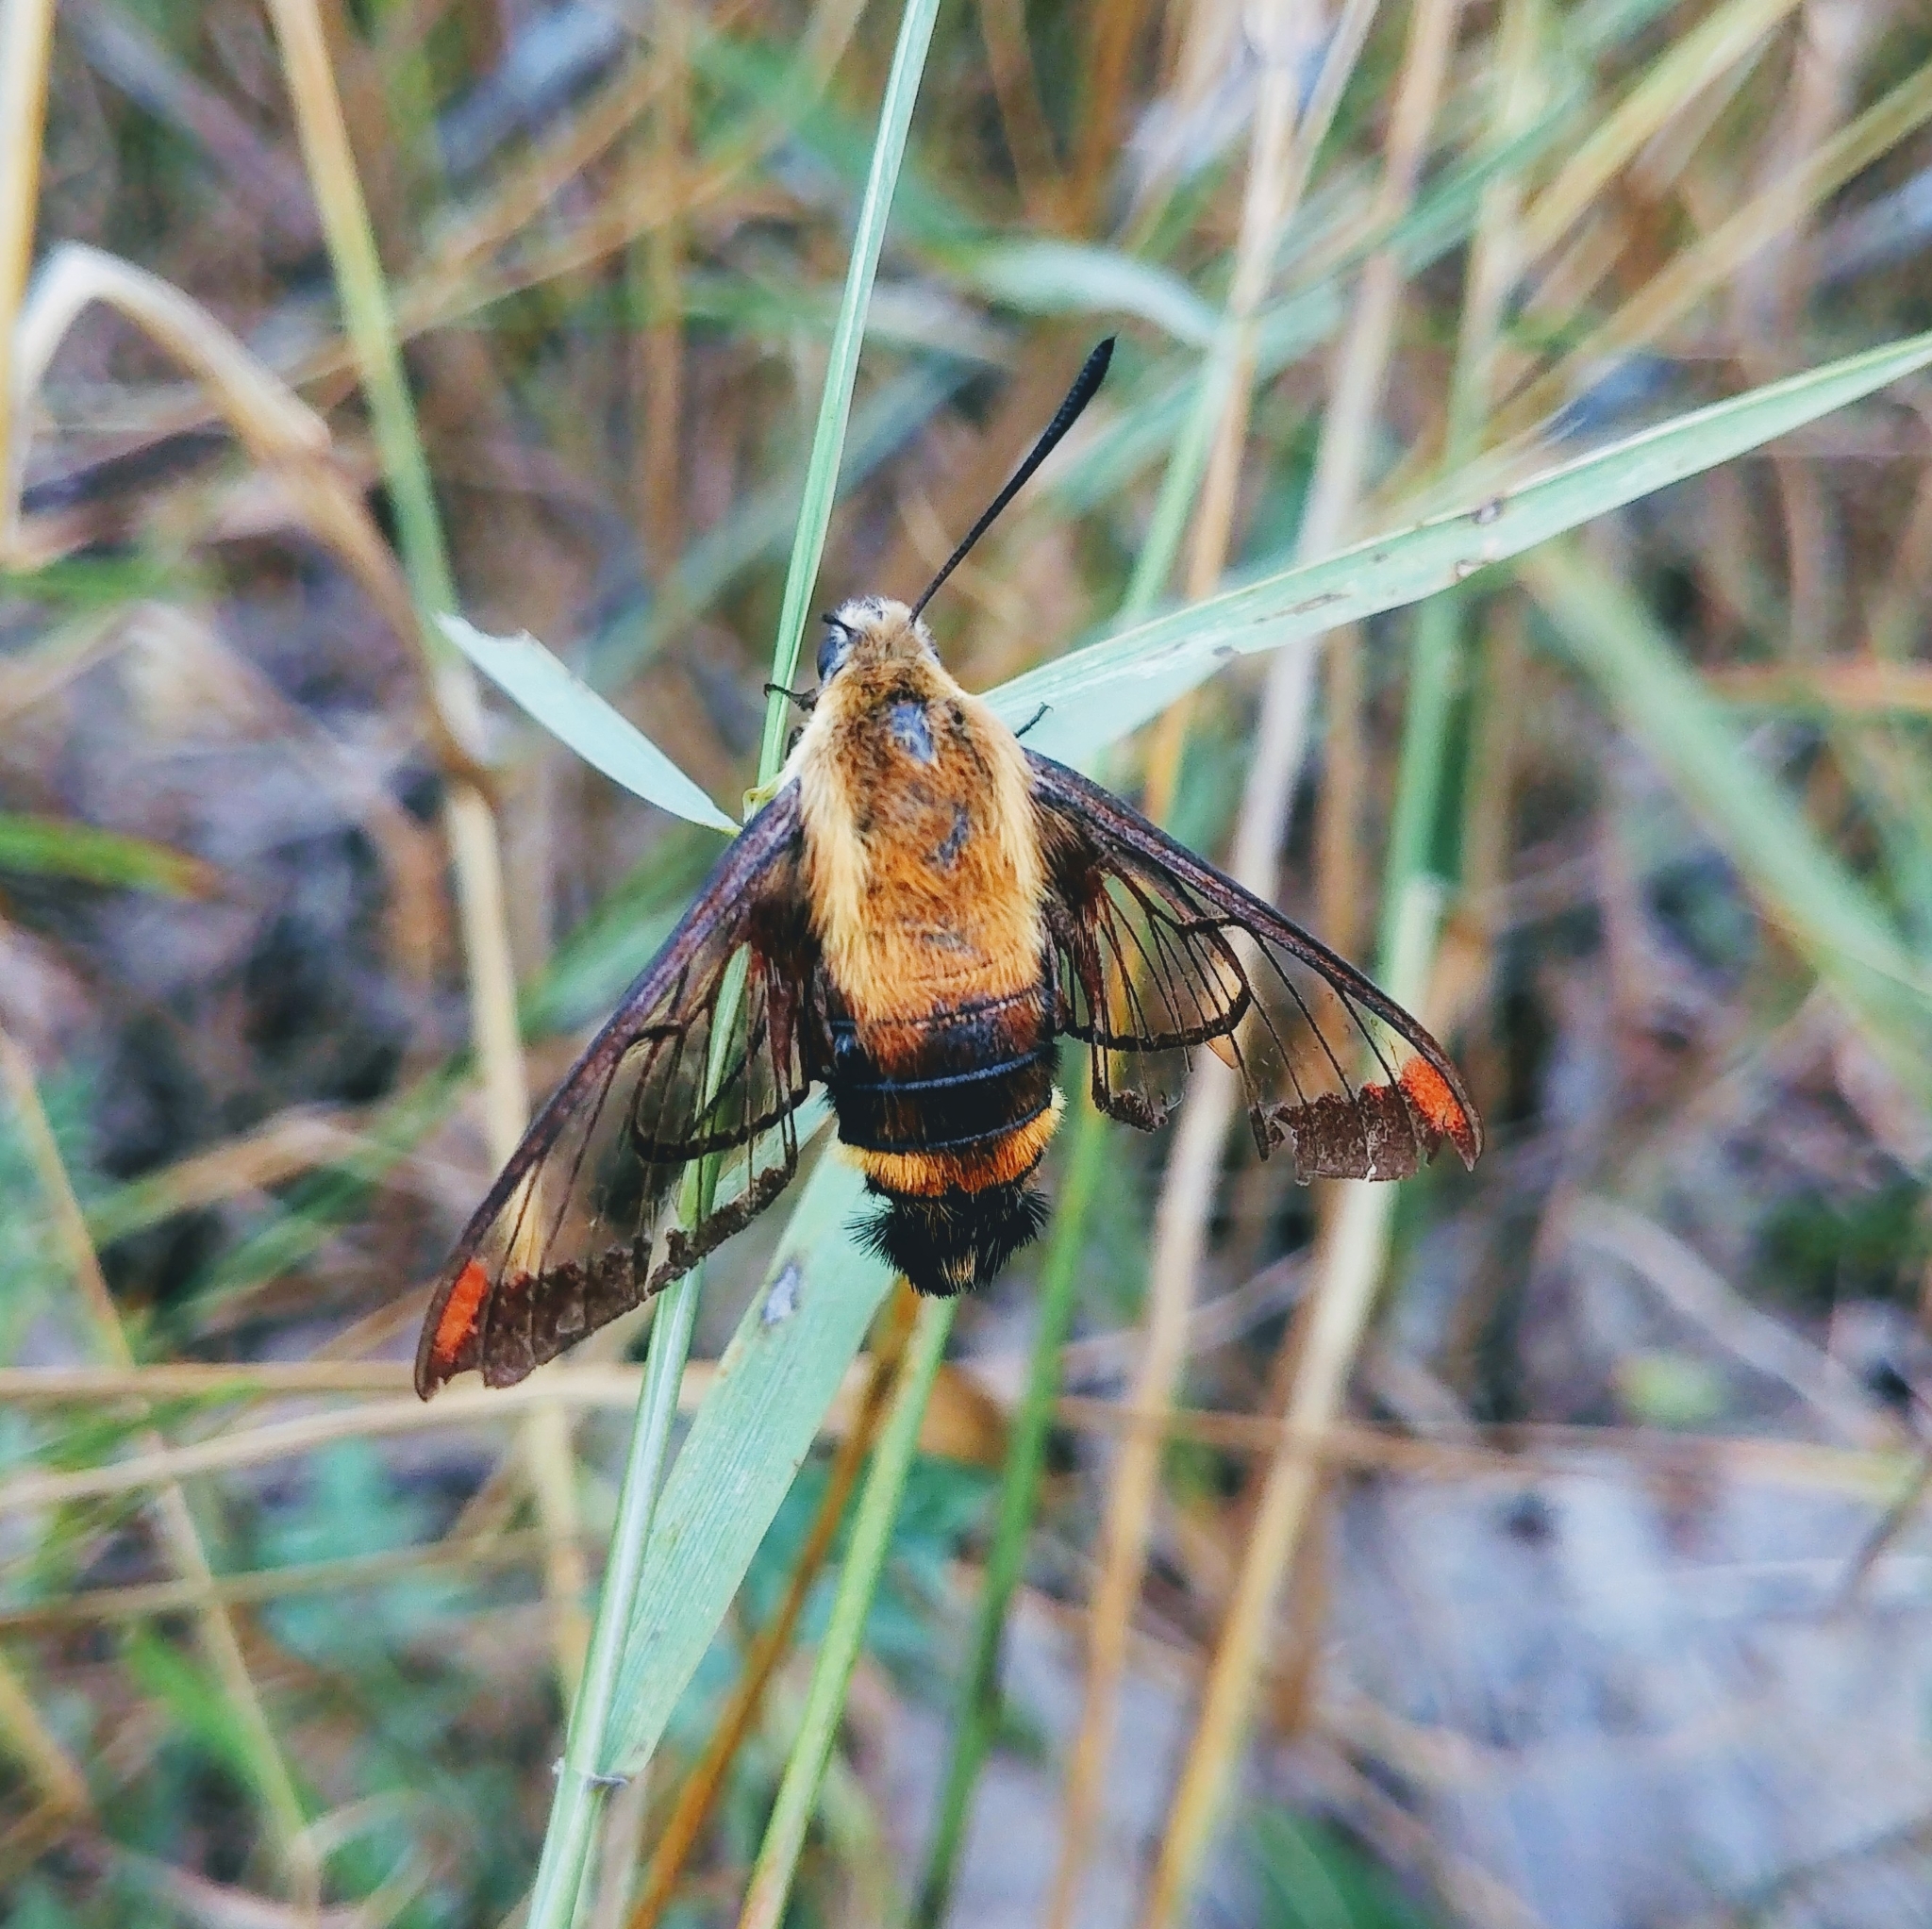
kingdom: Animalia
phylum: Arthropoda
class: Insecta
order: Lepidoptera
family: Sphingidae
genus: Hemaris
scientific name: Hemaris diffinis
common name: Bumblebee moth
